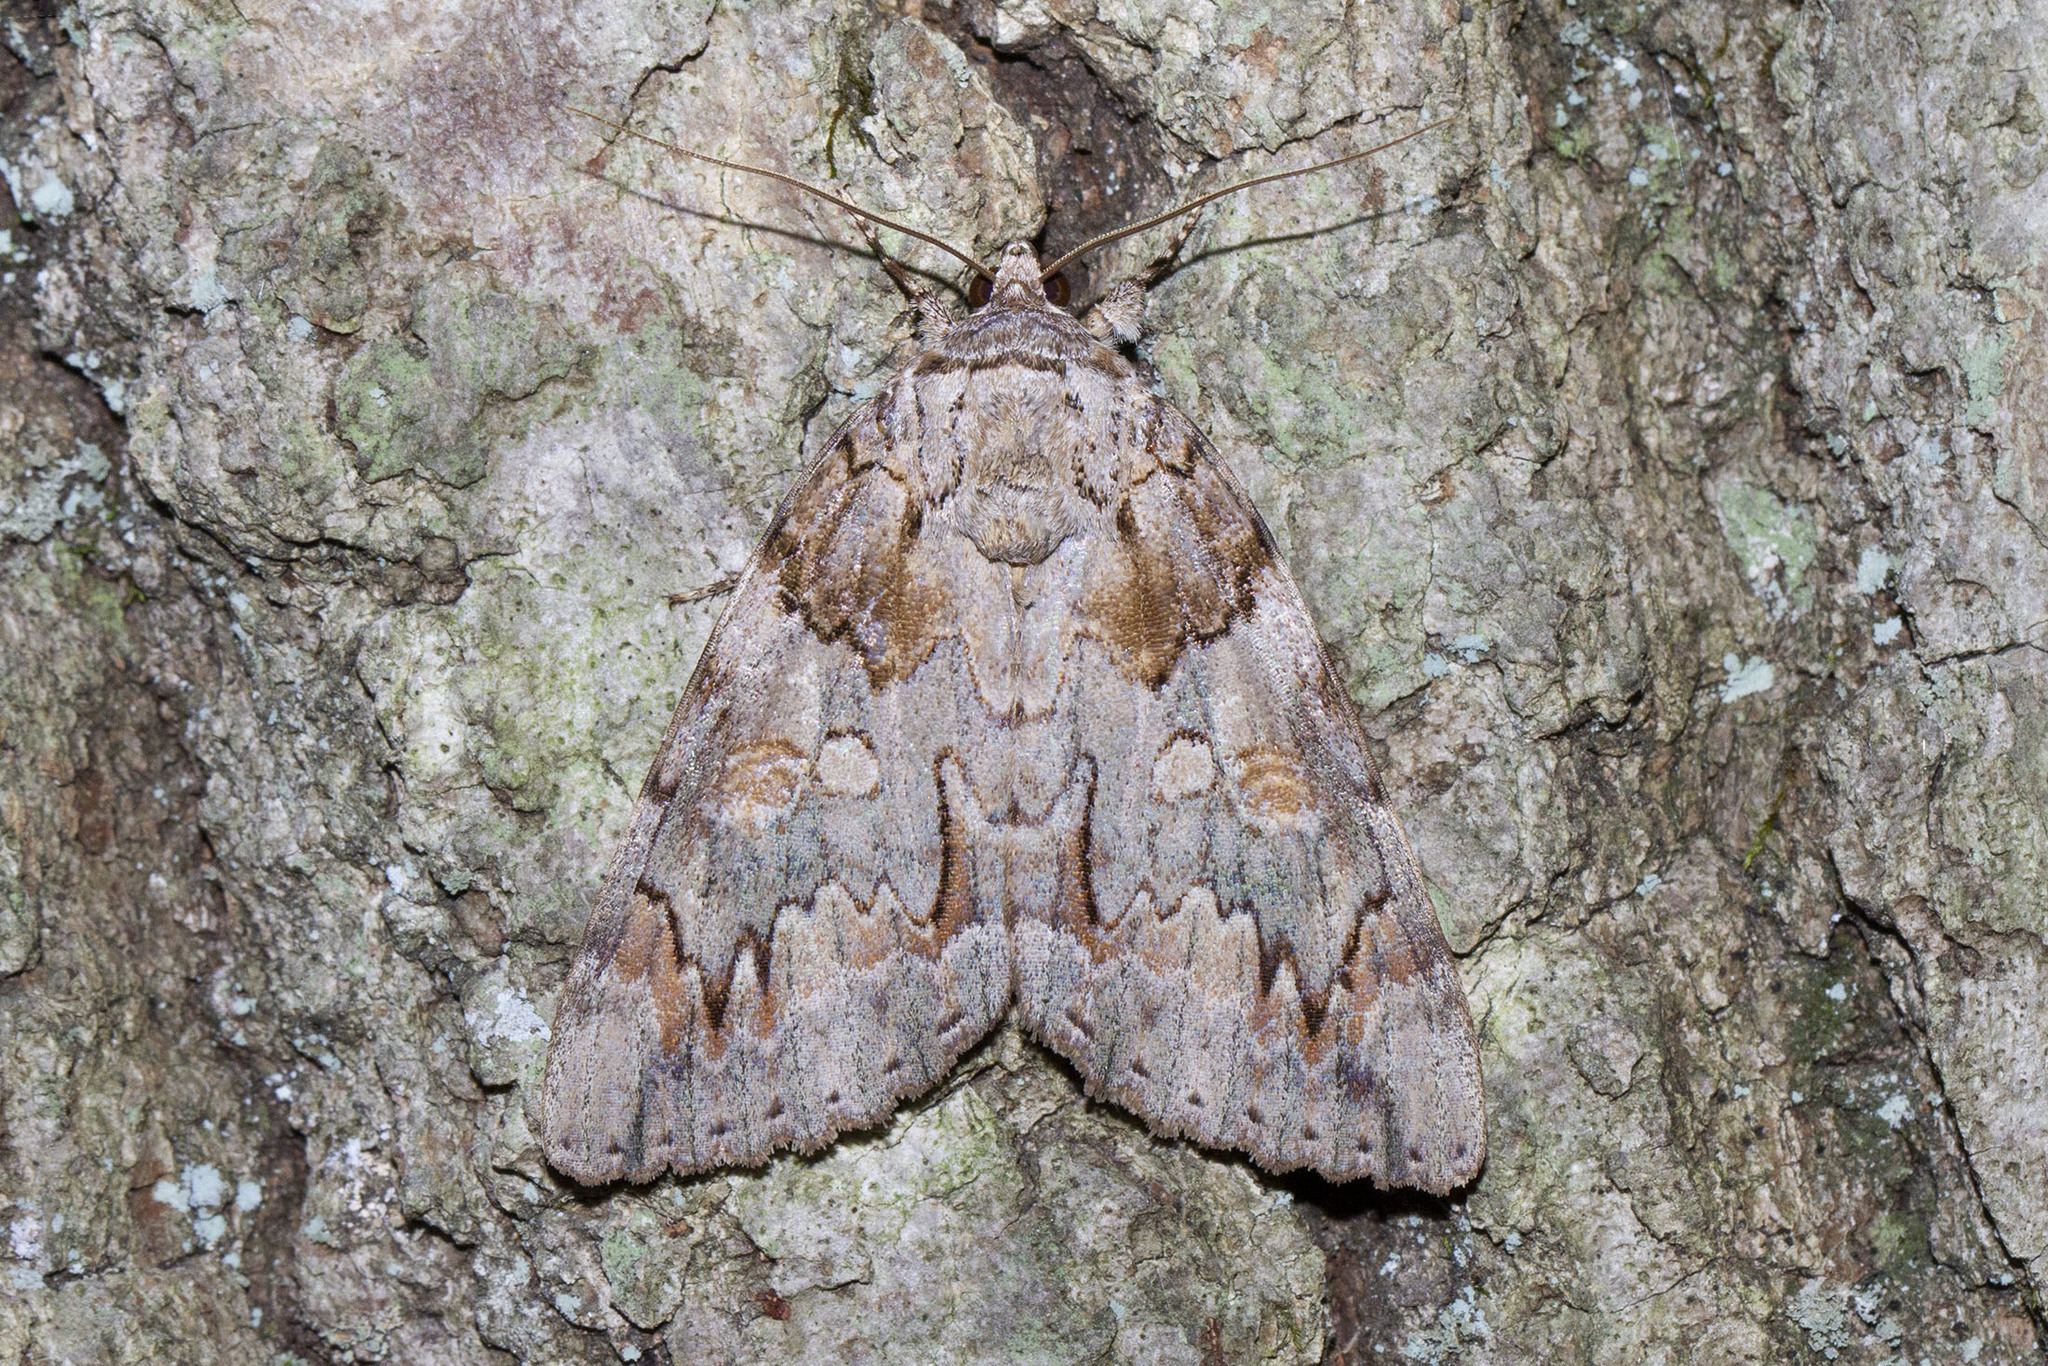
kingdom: Animalia
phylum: Arthropoda
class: Insecta
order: Lepidoptera
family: Erebidae
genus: Catocala
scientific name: Catocala neogama
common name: Bride underwing
